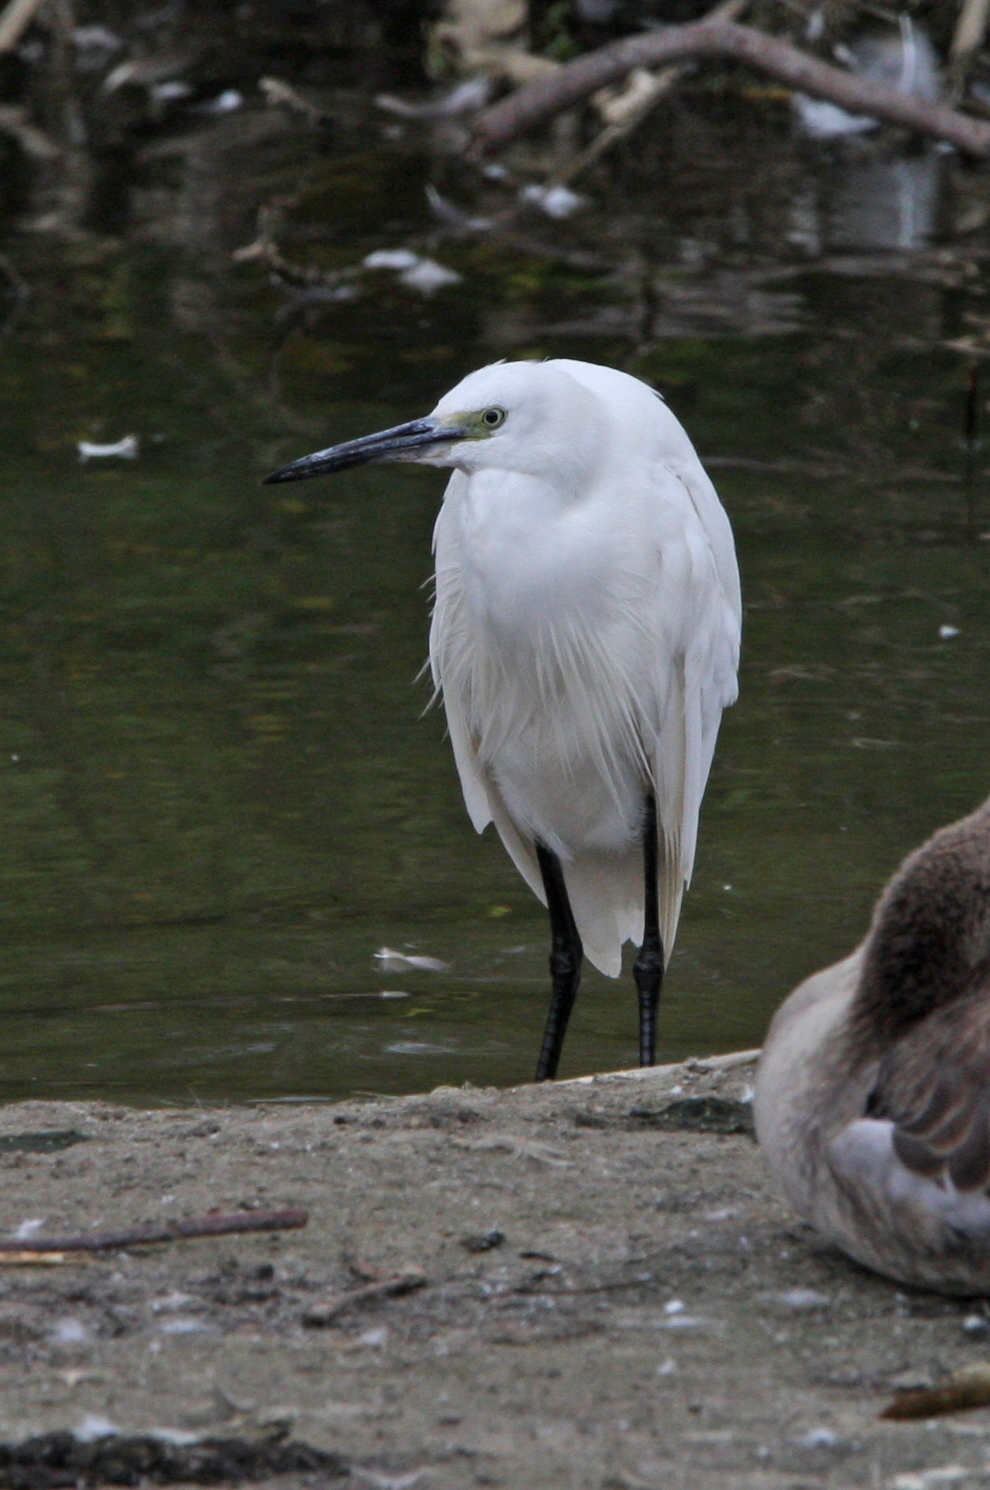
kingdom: Animalia
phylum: Chordata
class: Aves
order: Pelecaniformes
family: Ardeidae
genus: Egretta
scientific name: Egretta garzetta
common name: Little egret
